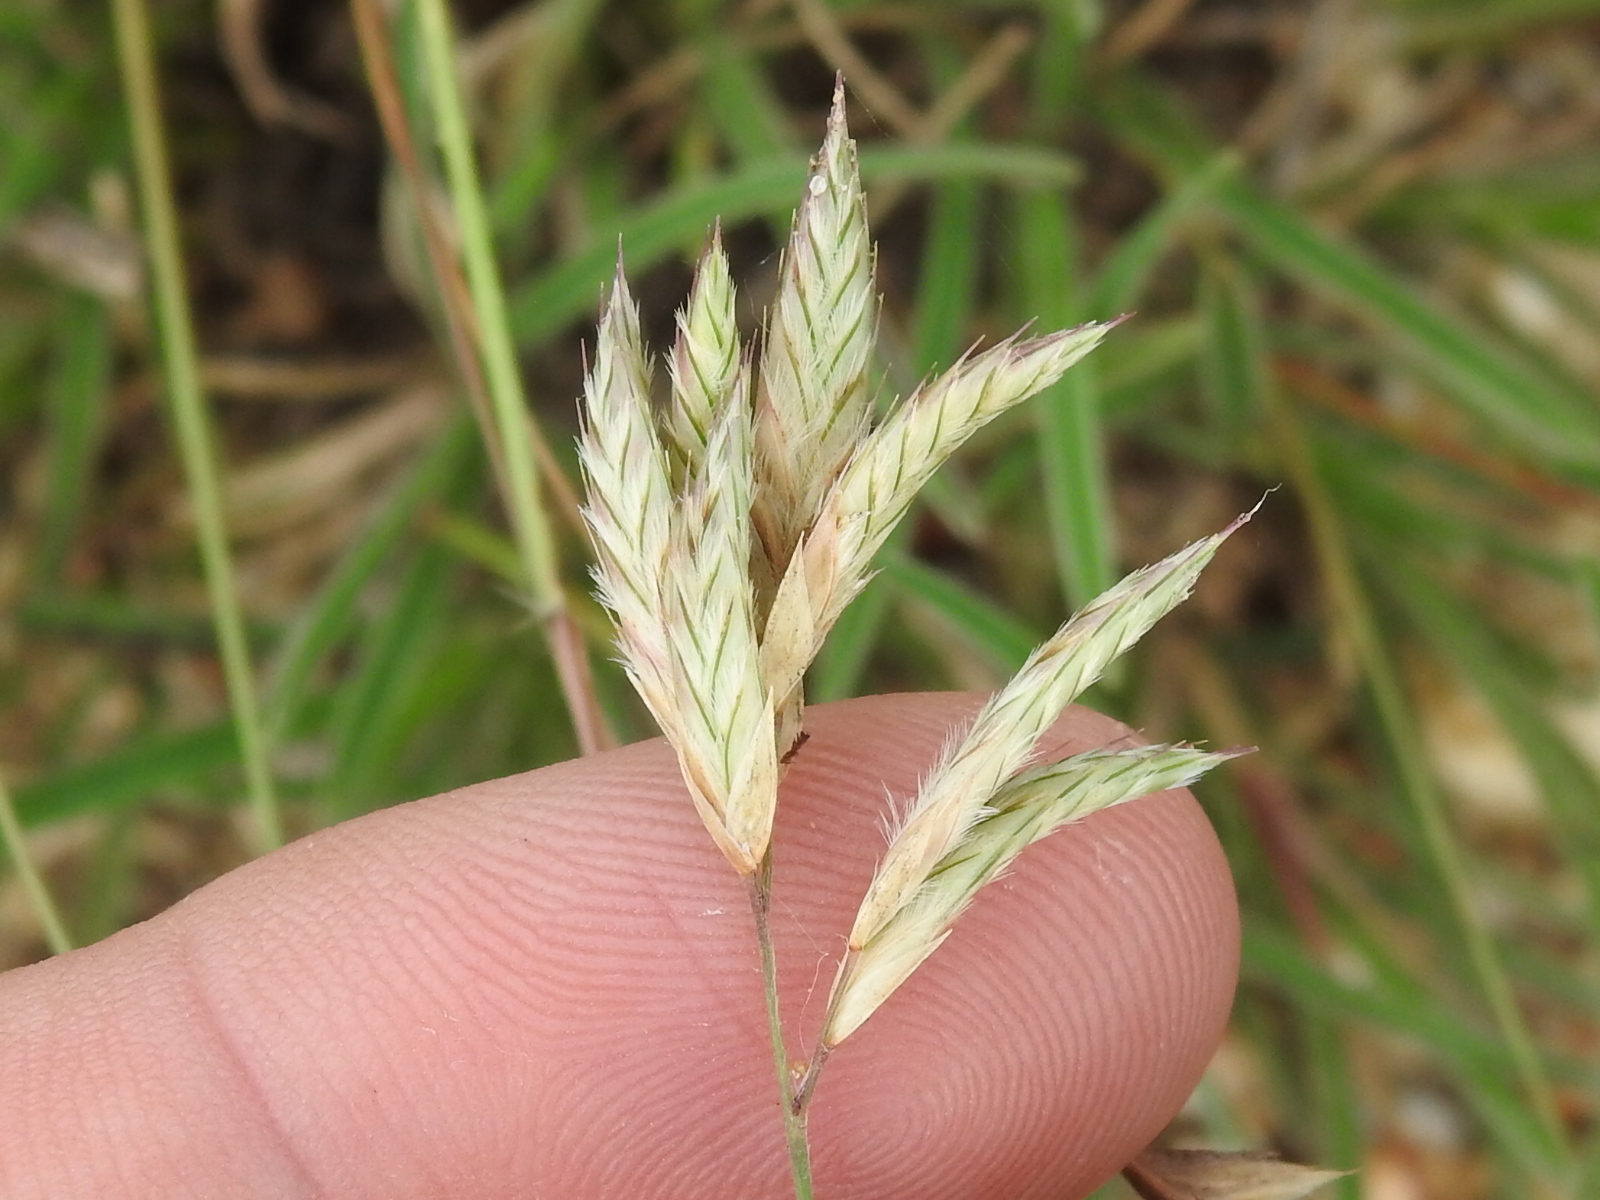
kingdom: Plantae
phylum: Tracheophyta
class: Liliopsida
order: Poales
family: Poaceae
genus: Erioneuron
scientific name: Erioneuron pilosum
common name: Hairy woolly grass
